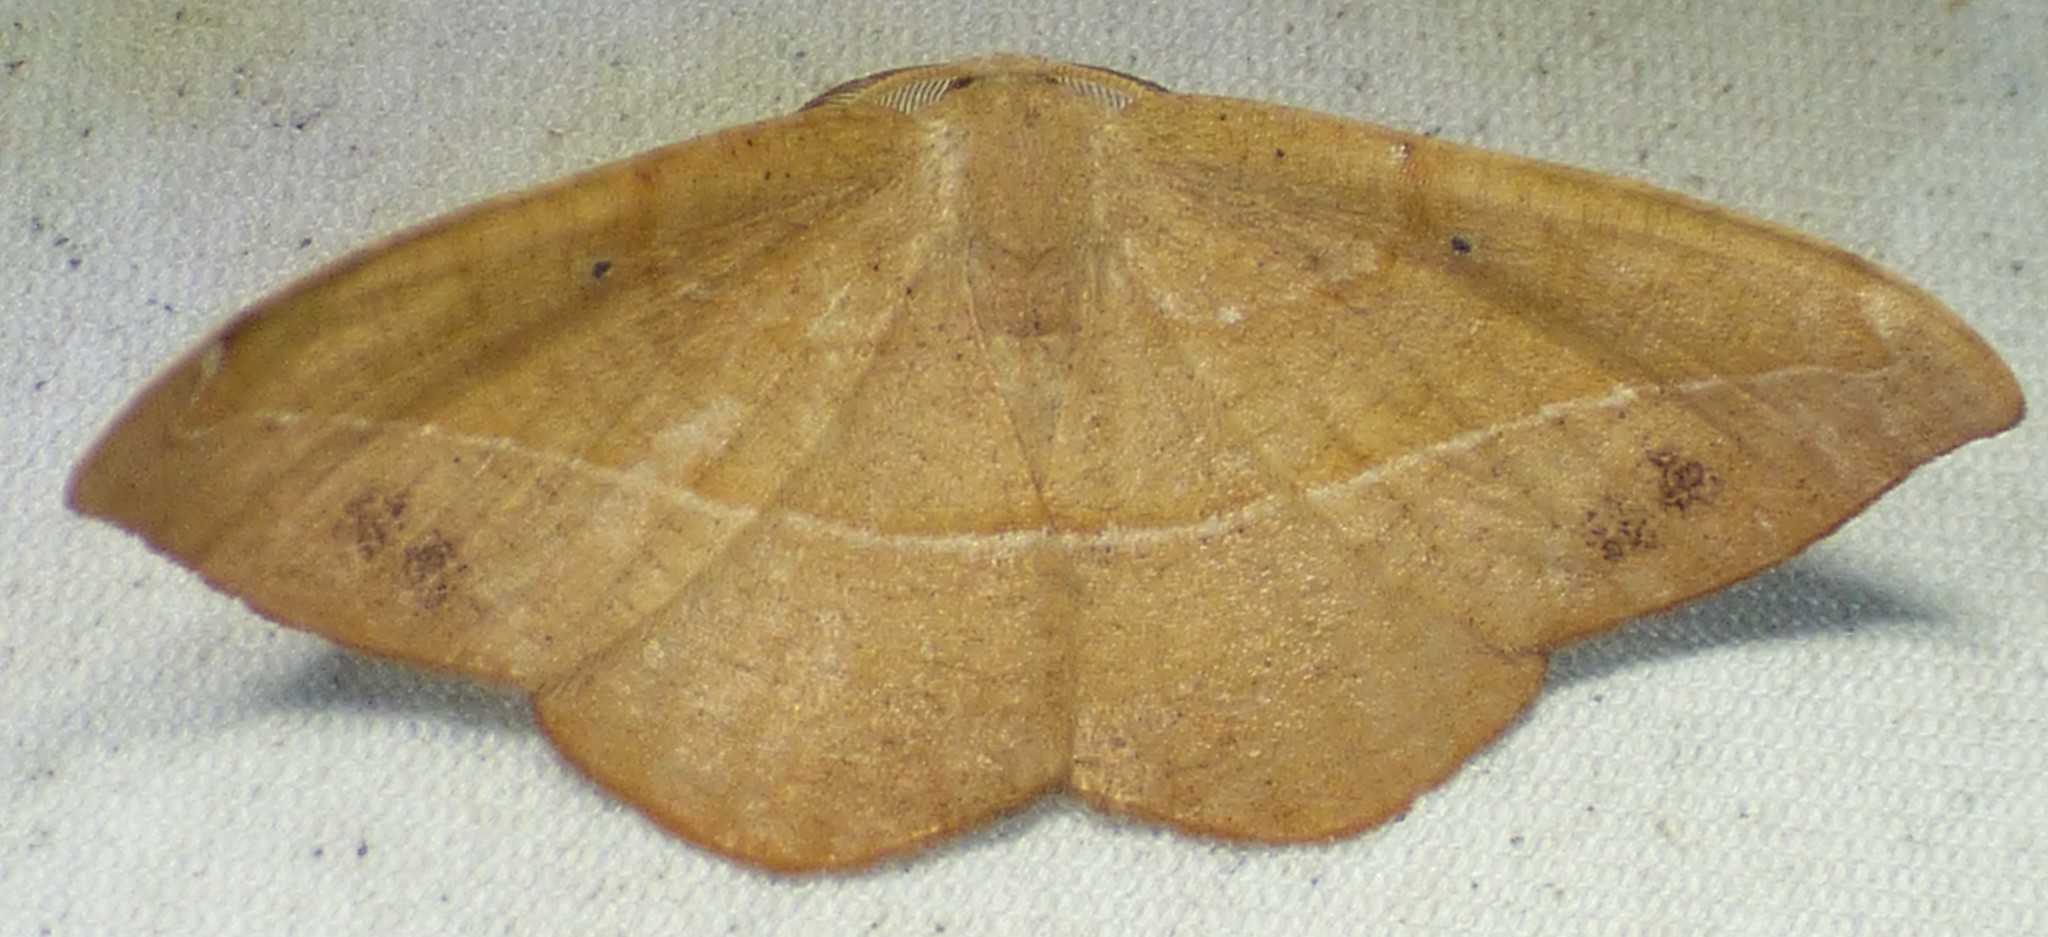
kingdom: Animalia
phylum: Arthropoda
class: Insecta
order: Lepidoptera
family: Geometridae
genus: Patalene
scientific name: Patalene olyzonaria
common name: Juniper geometer moth
